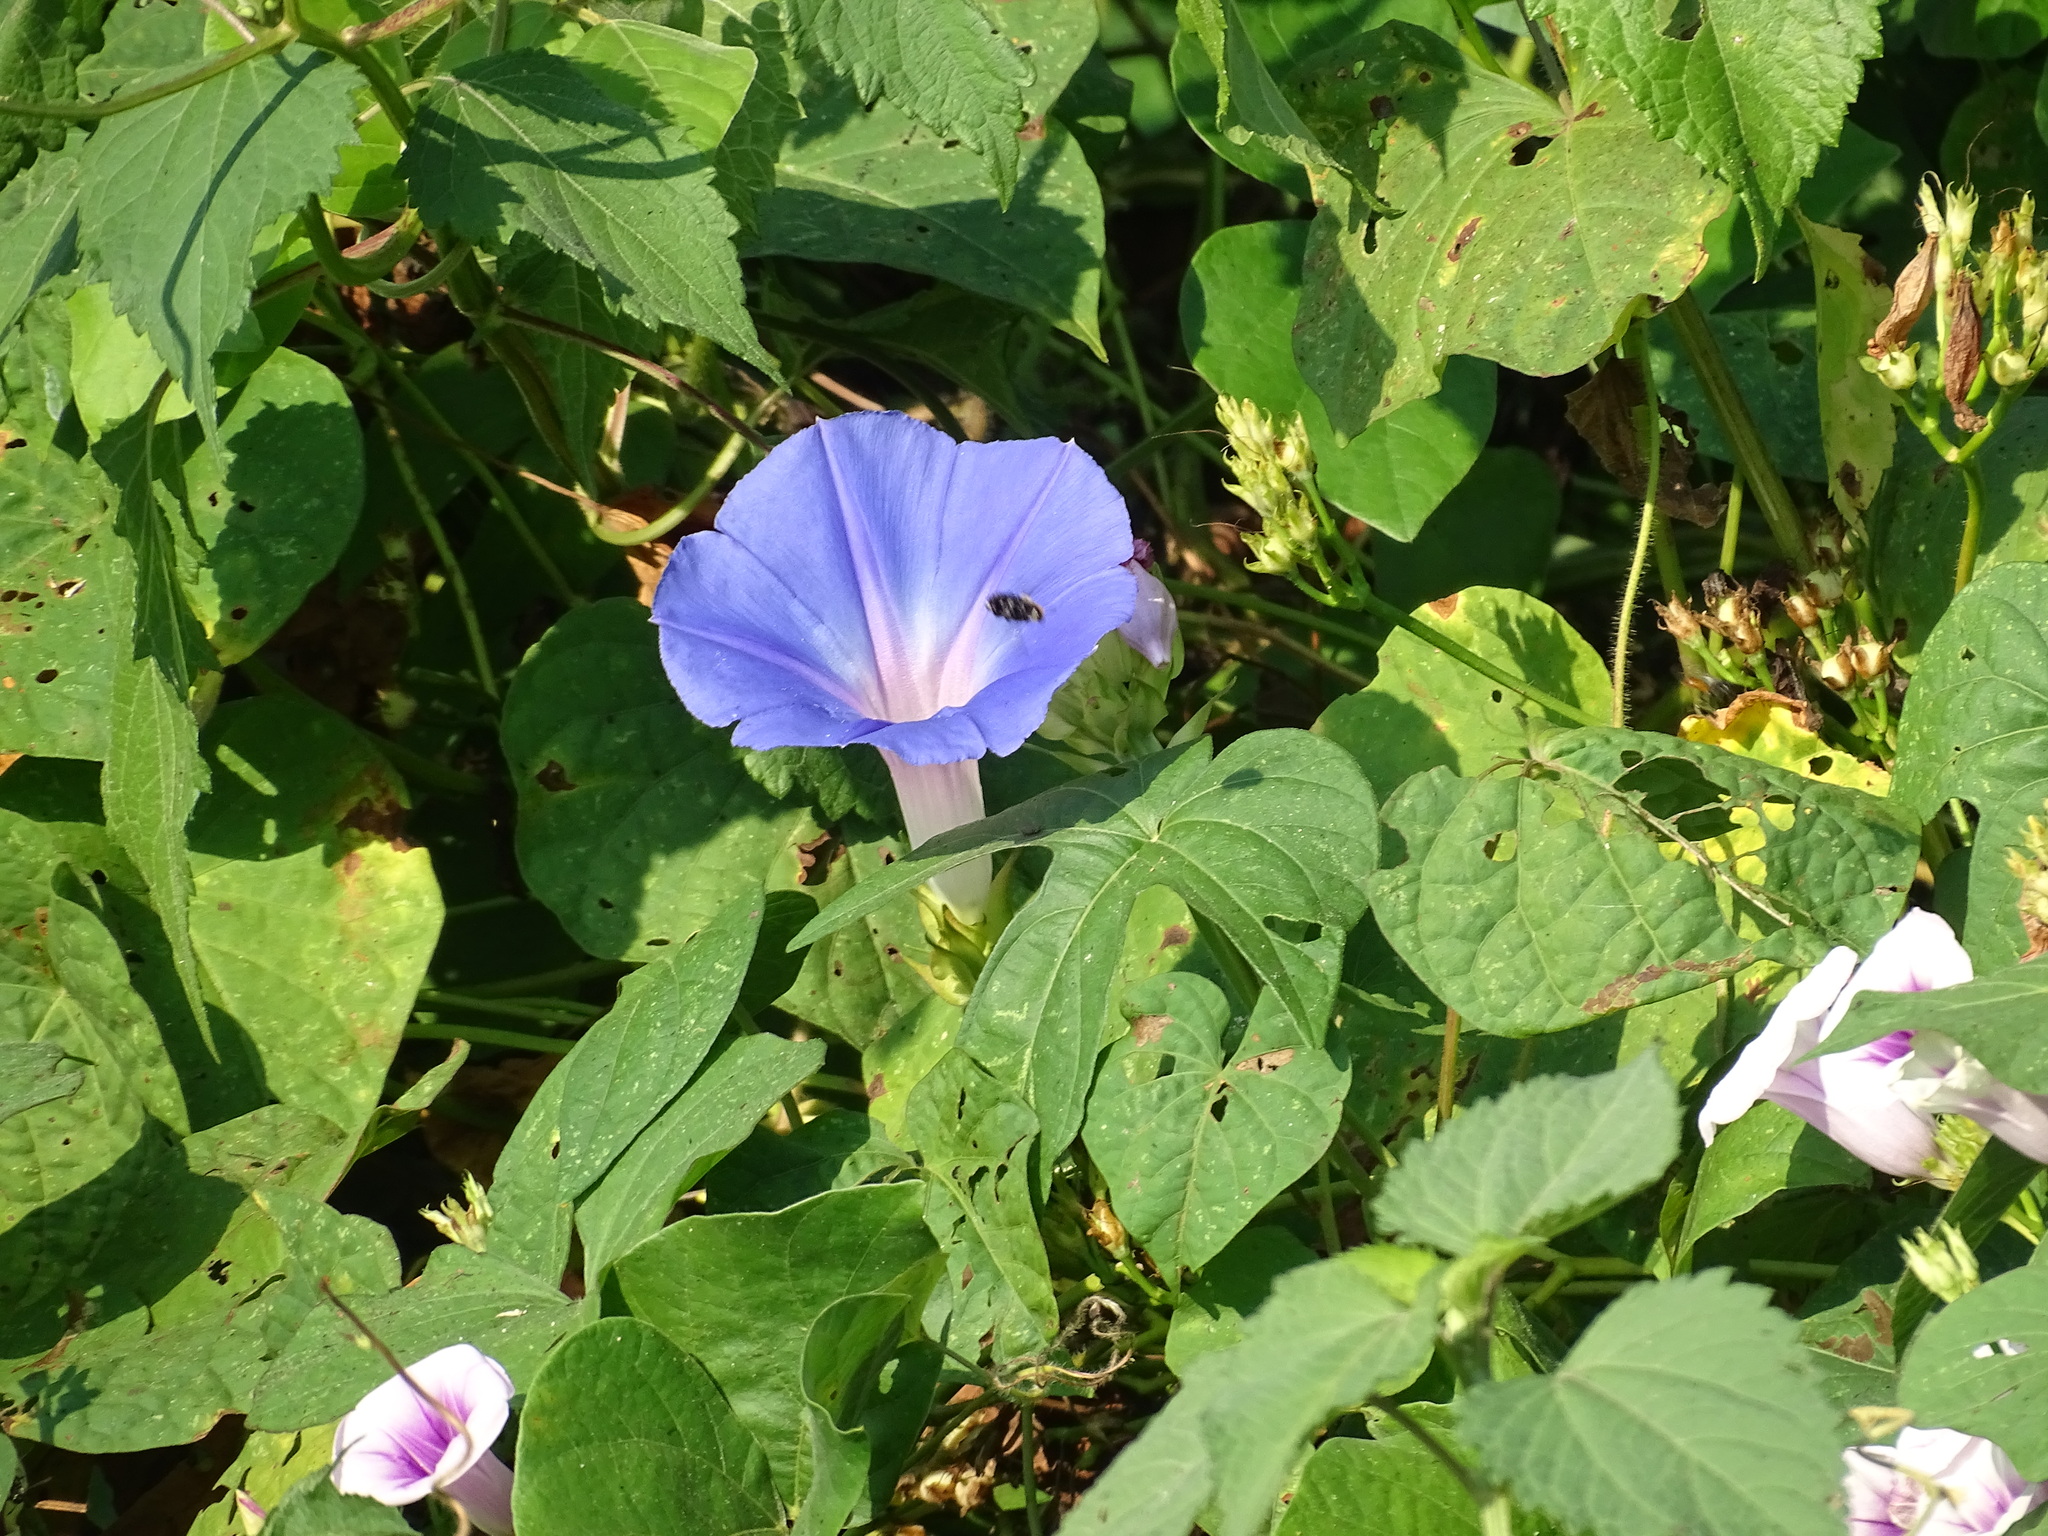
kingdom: Plantae
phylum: Tracheophyta
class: Magnoliopsida
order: Solanales
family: Convolvulaceae
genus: Ipomoea
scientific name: Ipomoea indica
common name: Blue dawnflower
